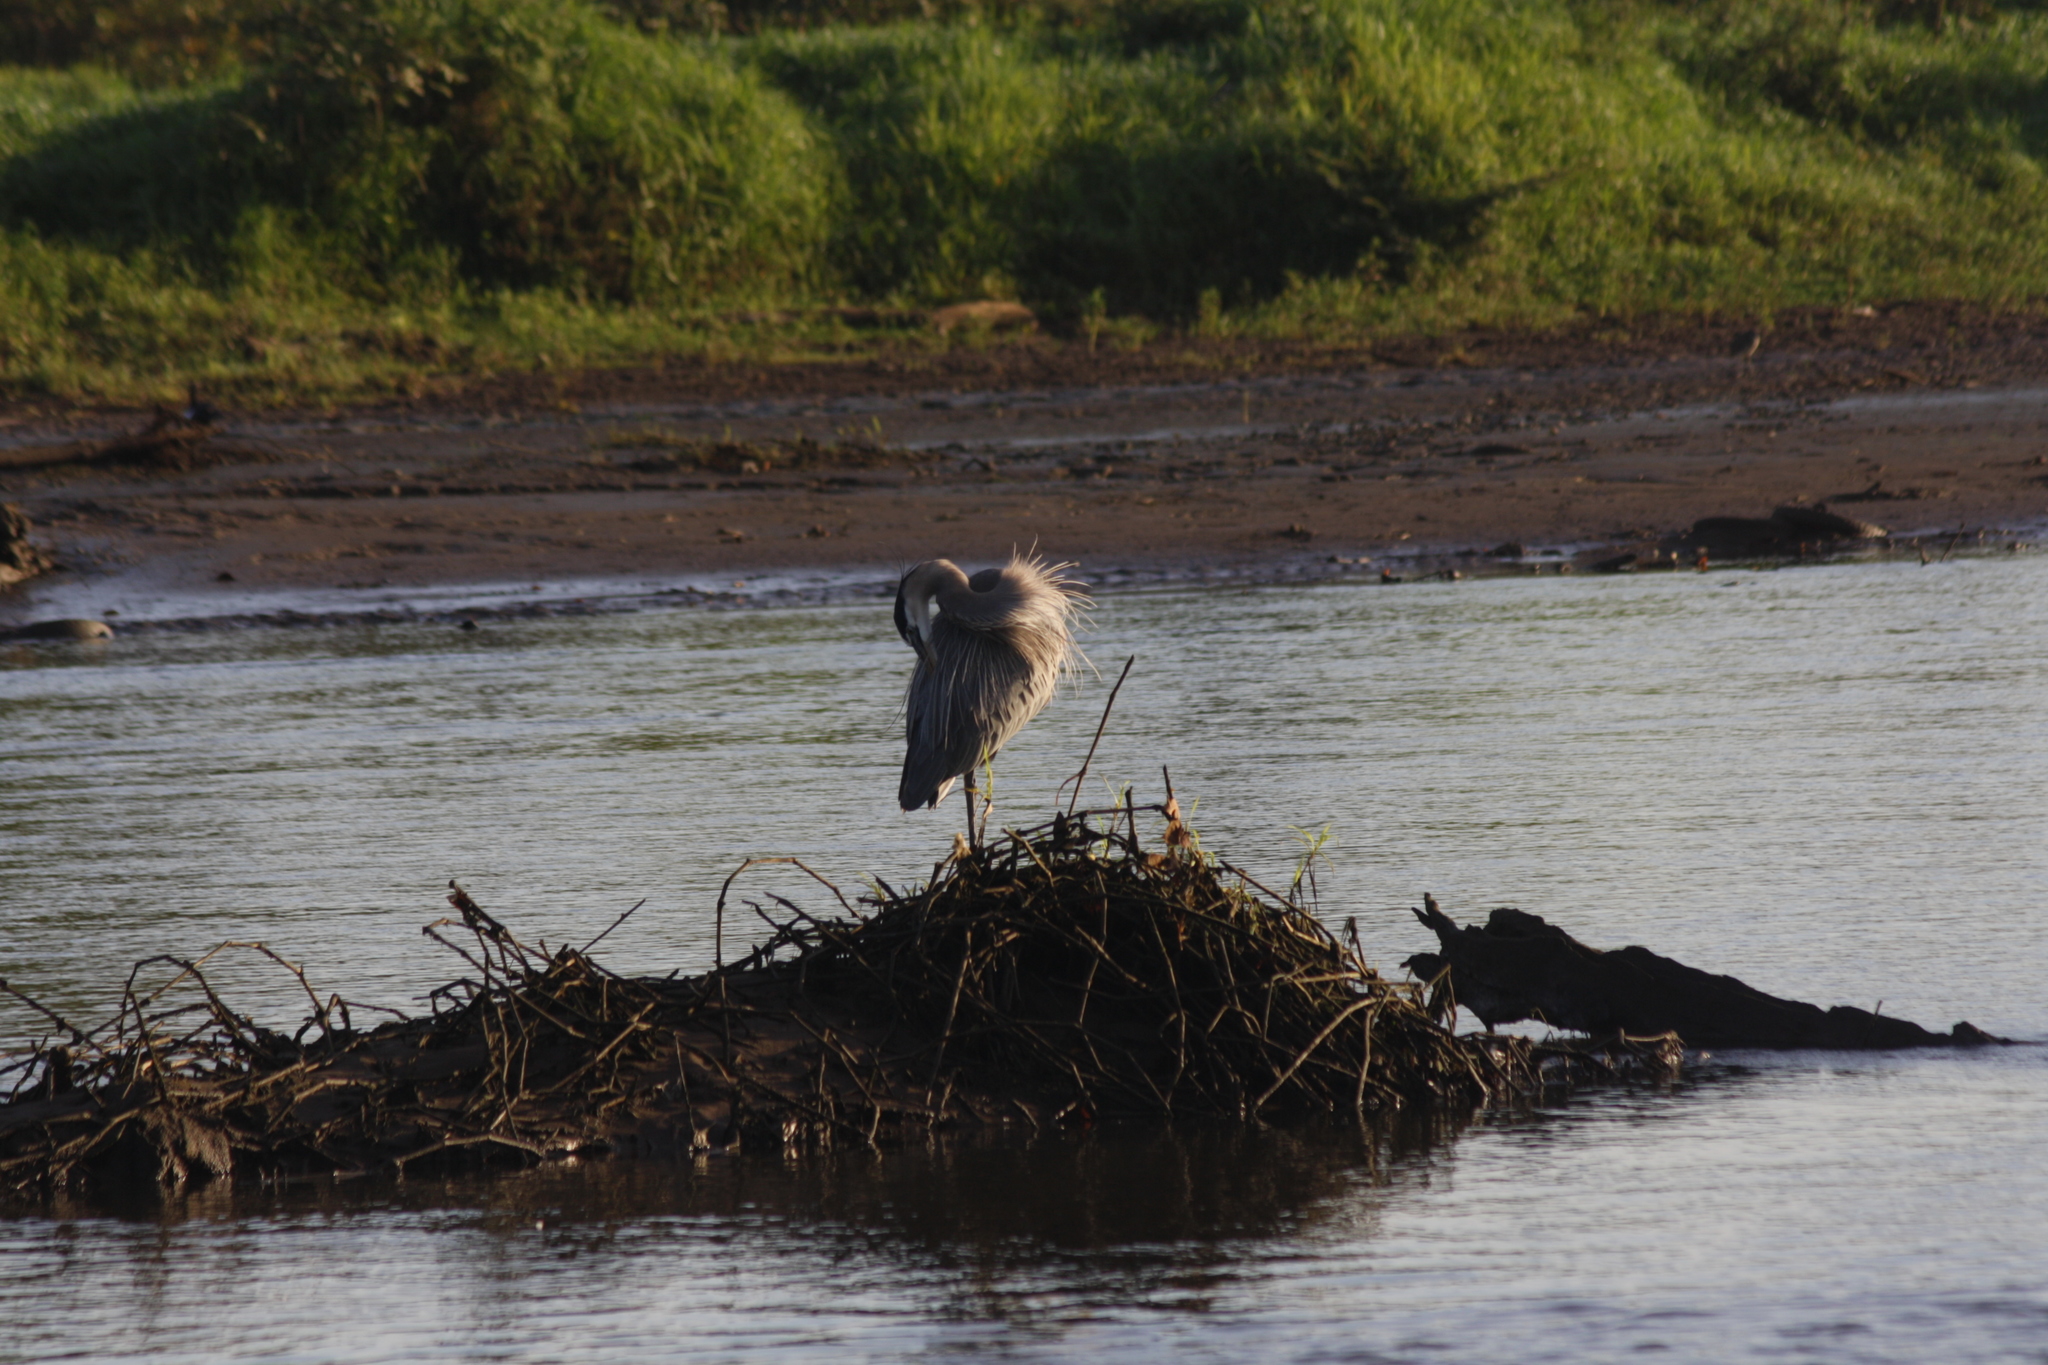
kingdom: Animalia
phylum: Chordata
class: Aves
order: Pelecaniformes
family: Ardeidae
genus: Ardea
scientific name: Ardea herodias
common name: Great blue heron
